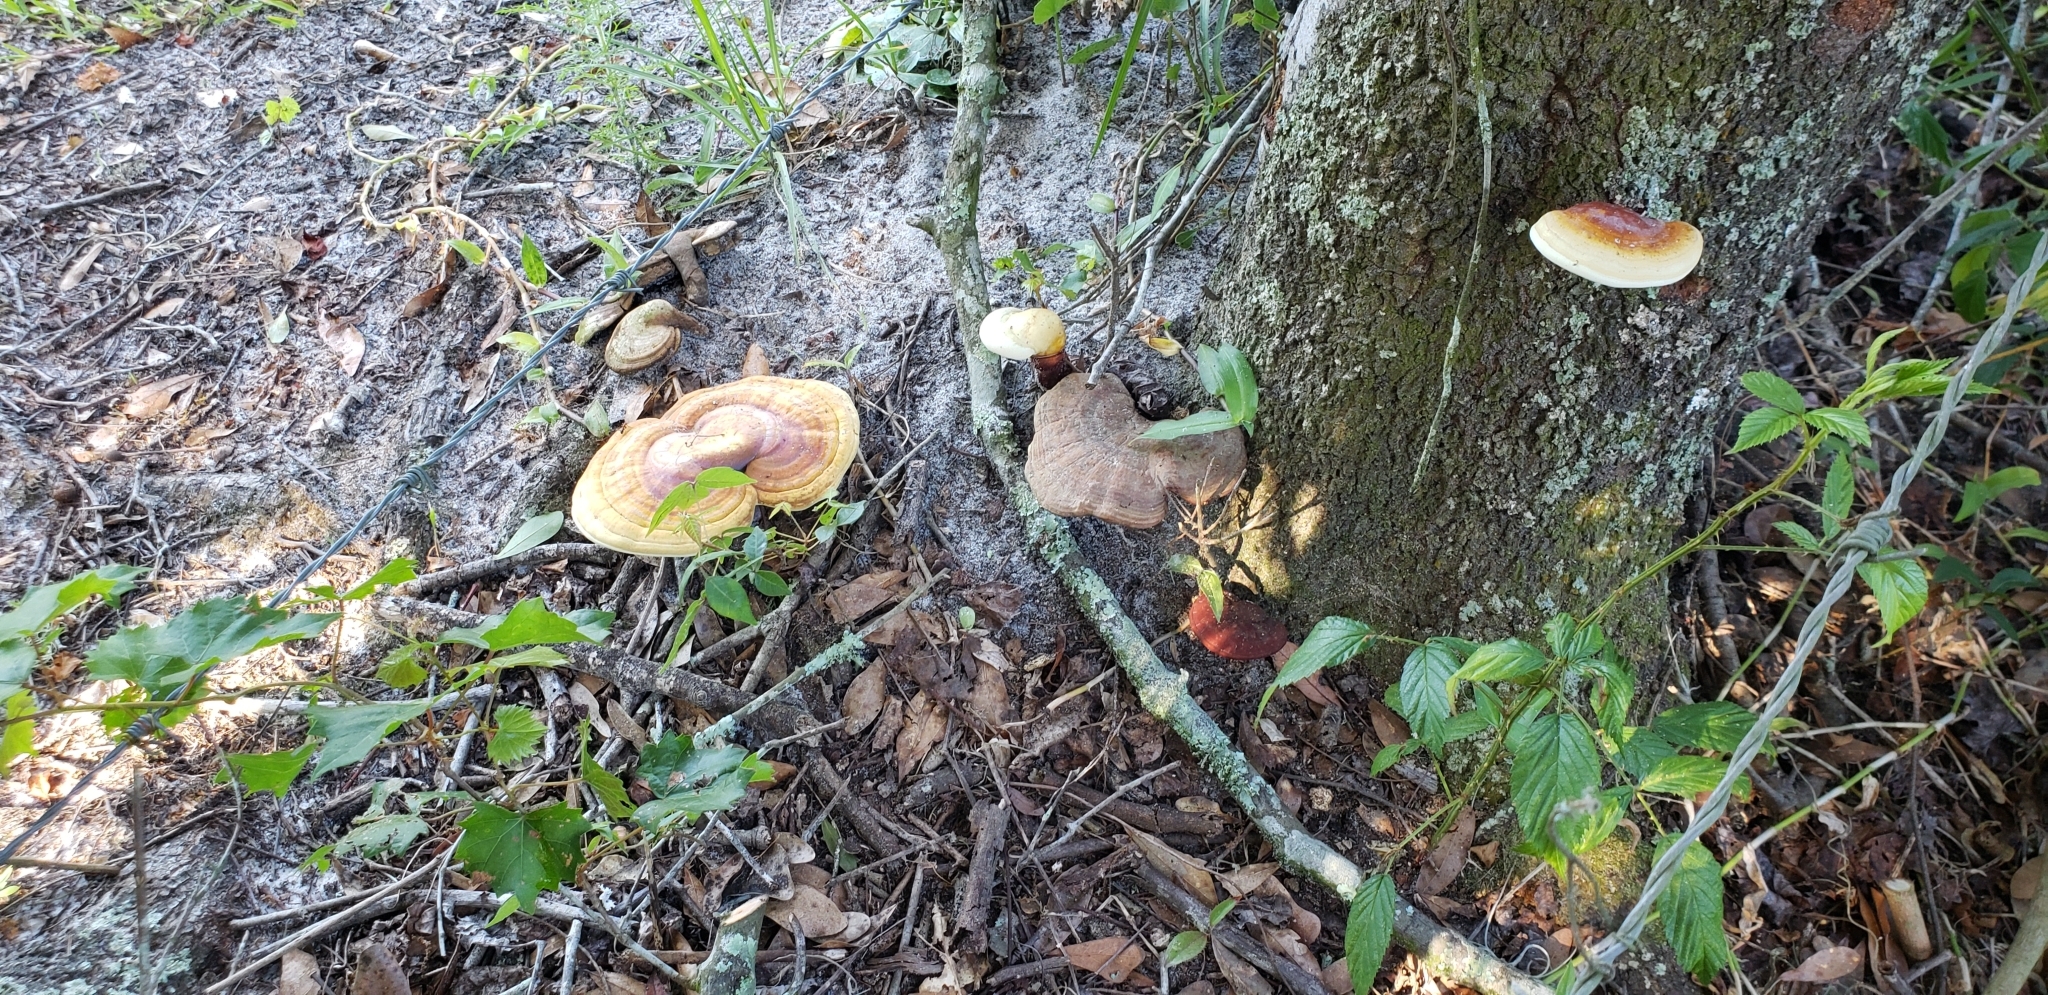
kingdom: Fungi
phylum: Basidiomycota
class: Agaricomycetes
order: Polyporales
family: Polyporaceae
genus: Ganoderma
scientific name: Ganoderma curtisii
